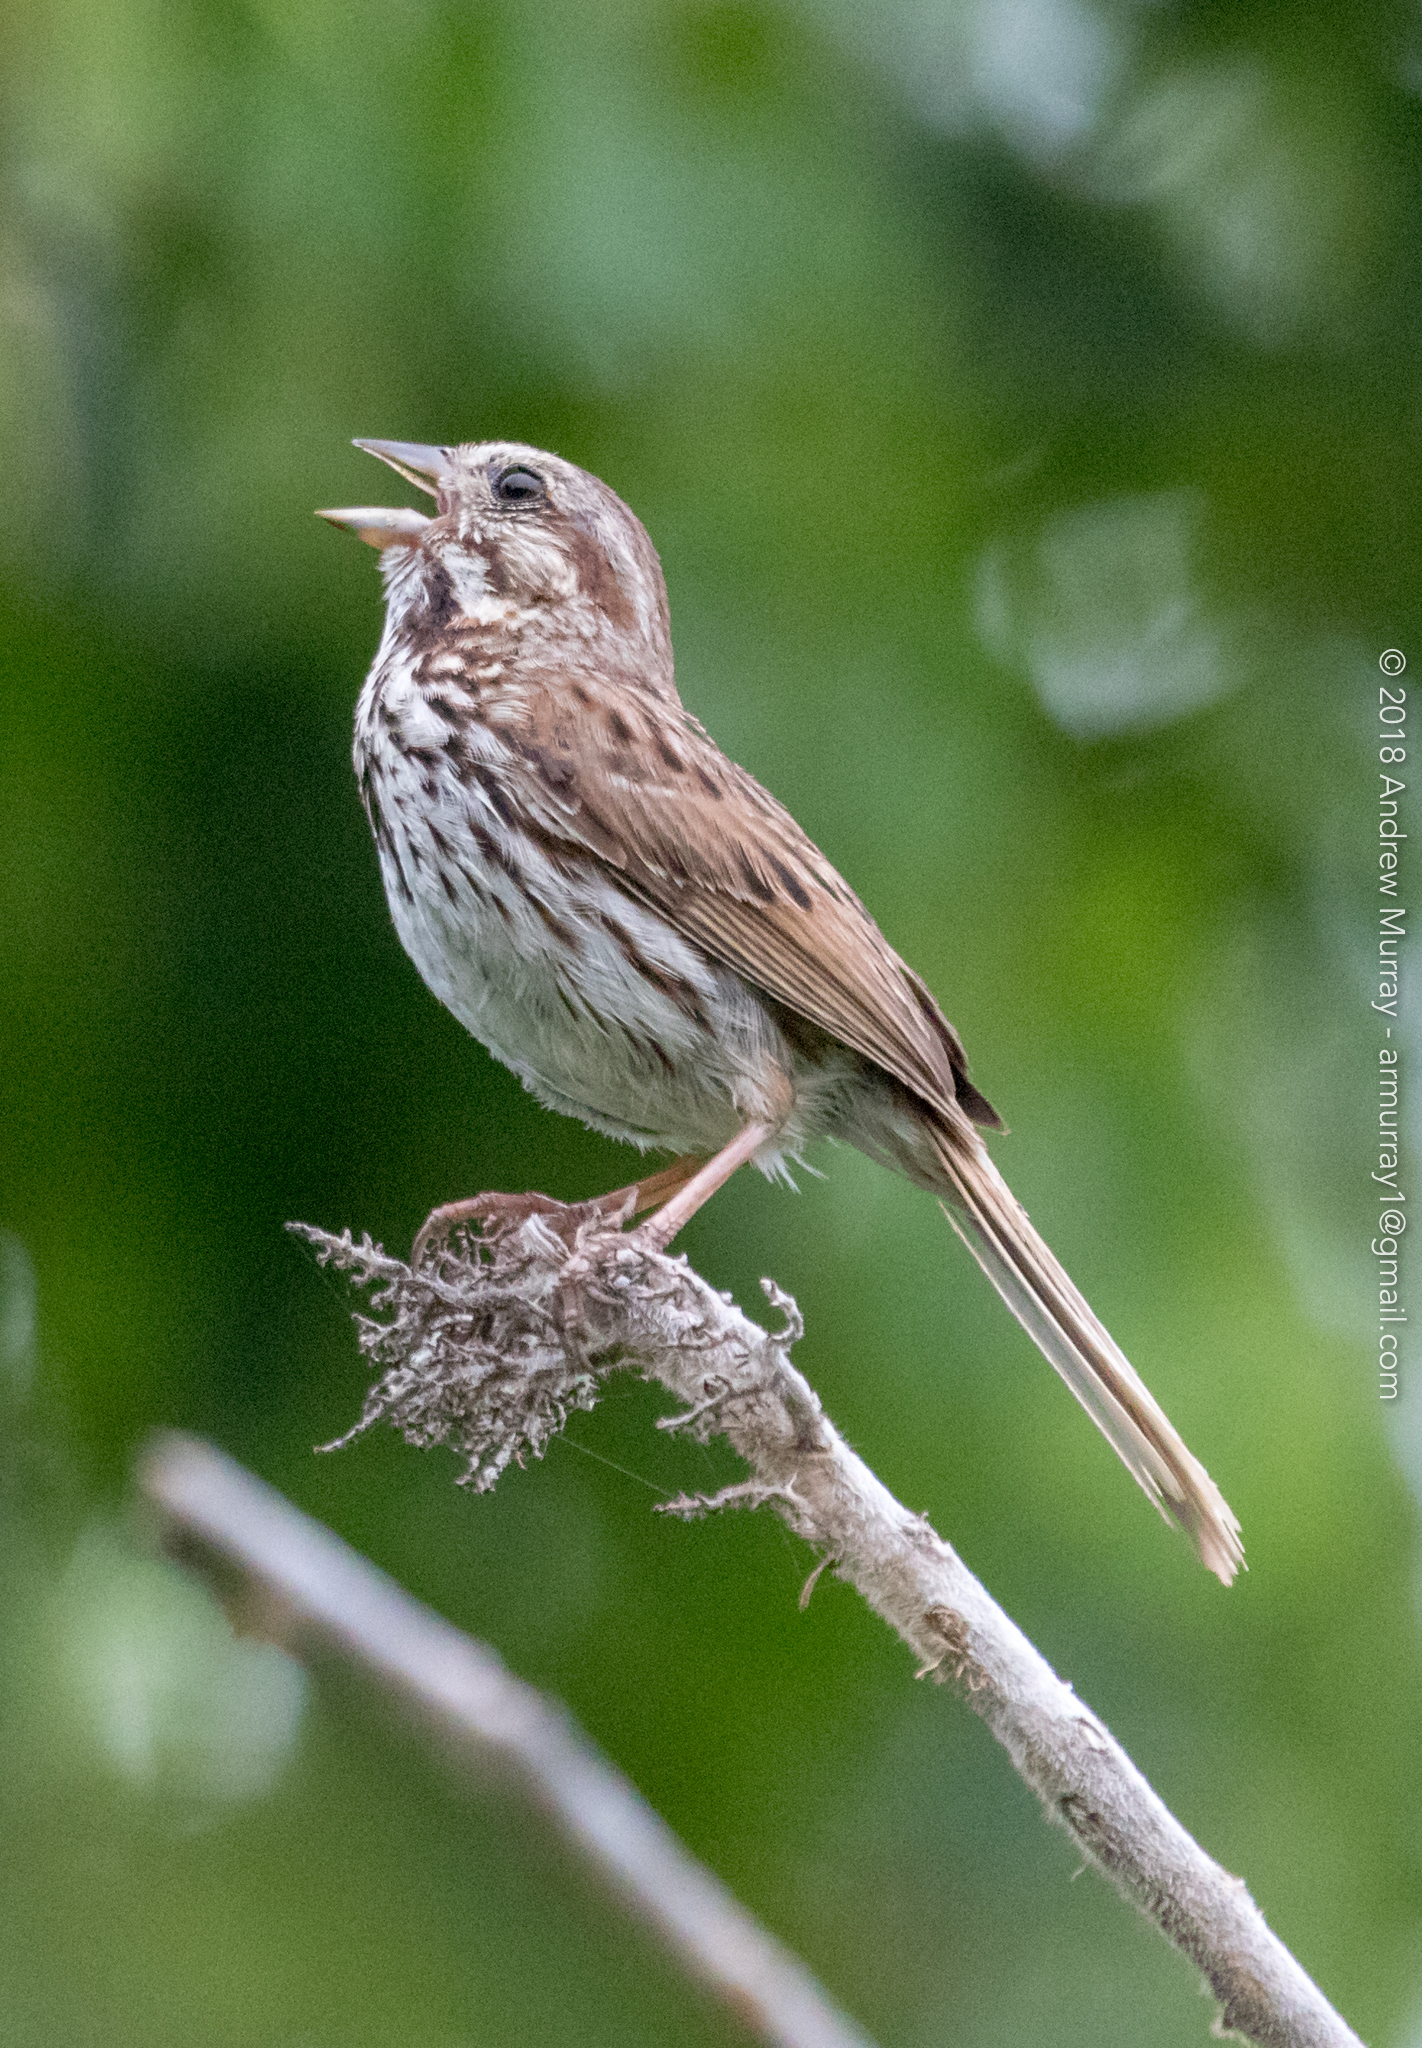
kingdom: Animalia
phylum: Chordata
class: Aves
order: Passeriformes
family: Passerellidae
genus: Melospiza
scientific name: Melospiza melodia
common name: Song sparrow
